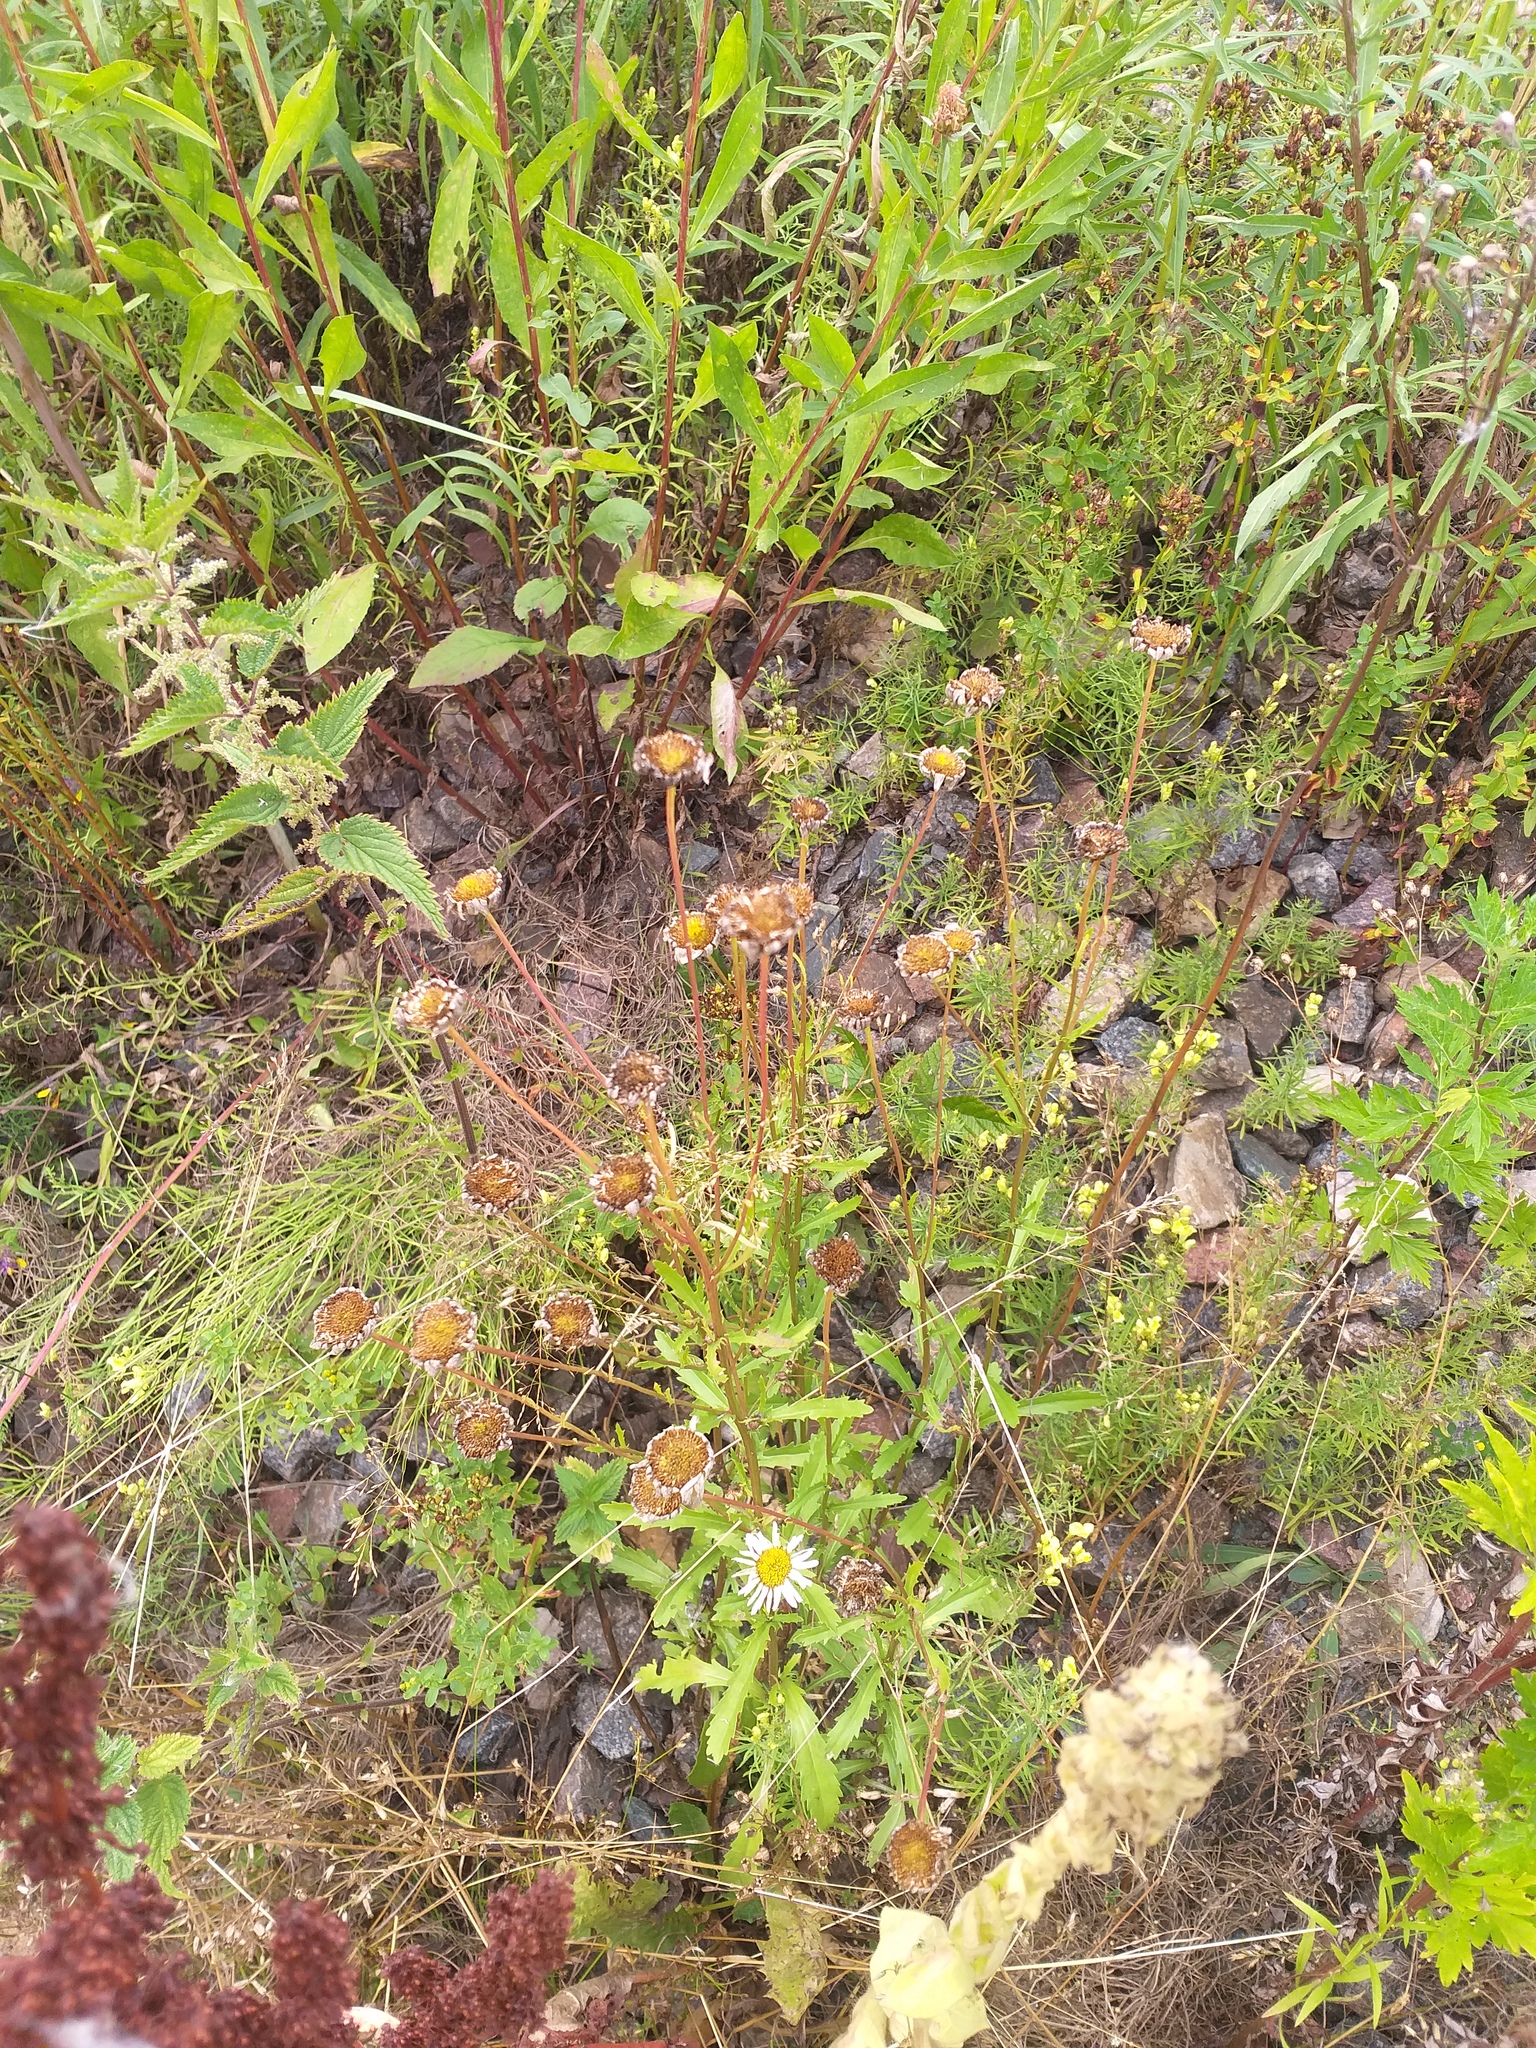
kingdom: Plantae
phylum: Tracheophyta
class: Magnoliopsida
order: Asterales
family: Asteraceae
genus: Leucanthemum
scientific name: Leucanthemum vulgare
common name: Oxeye daisy
